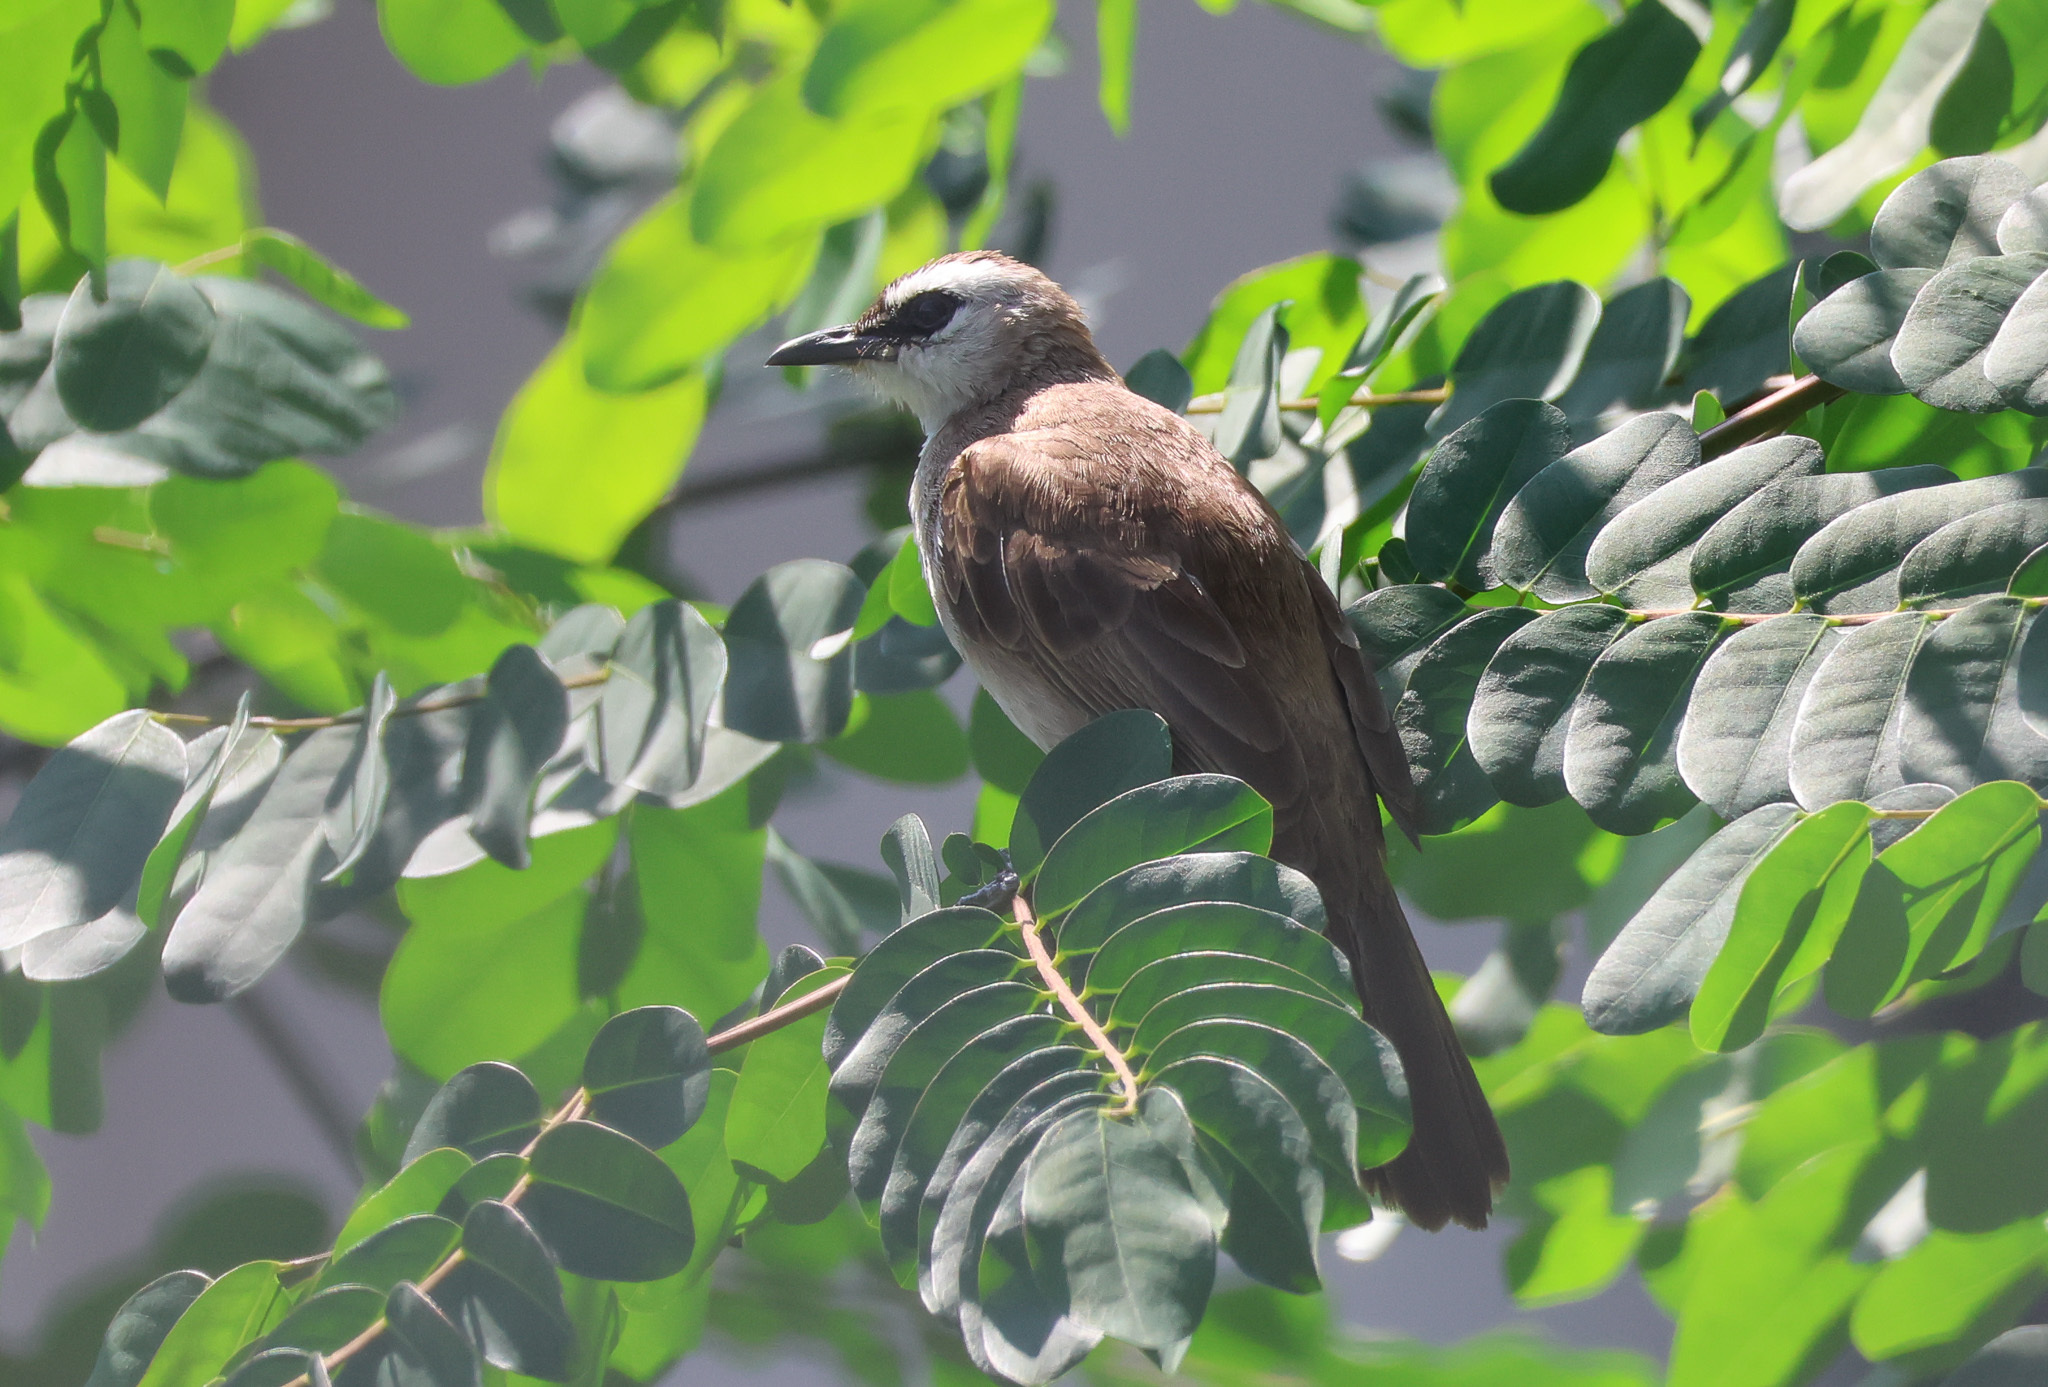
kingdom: Animalia
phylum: Chordata
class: Aves
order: Passeriformes
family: Pycnonotidae
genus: Pycnonotus
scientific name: Pycnonotus goiavier
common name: Yellow-vented bulbul
